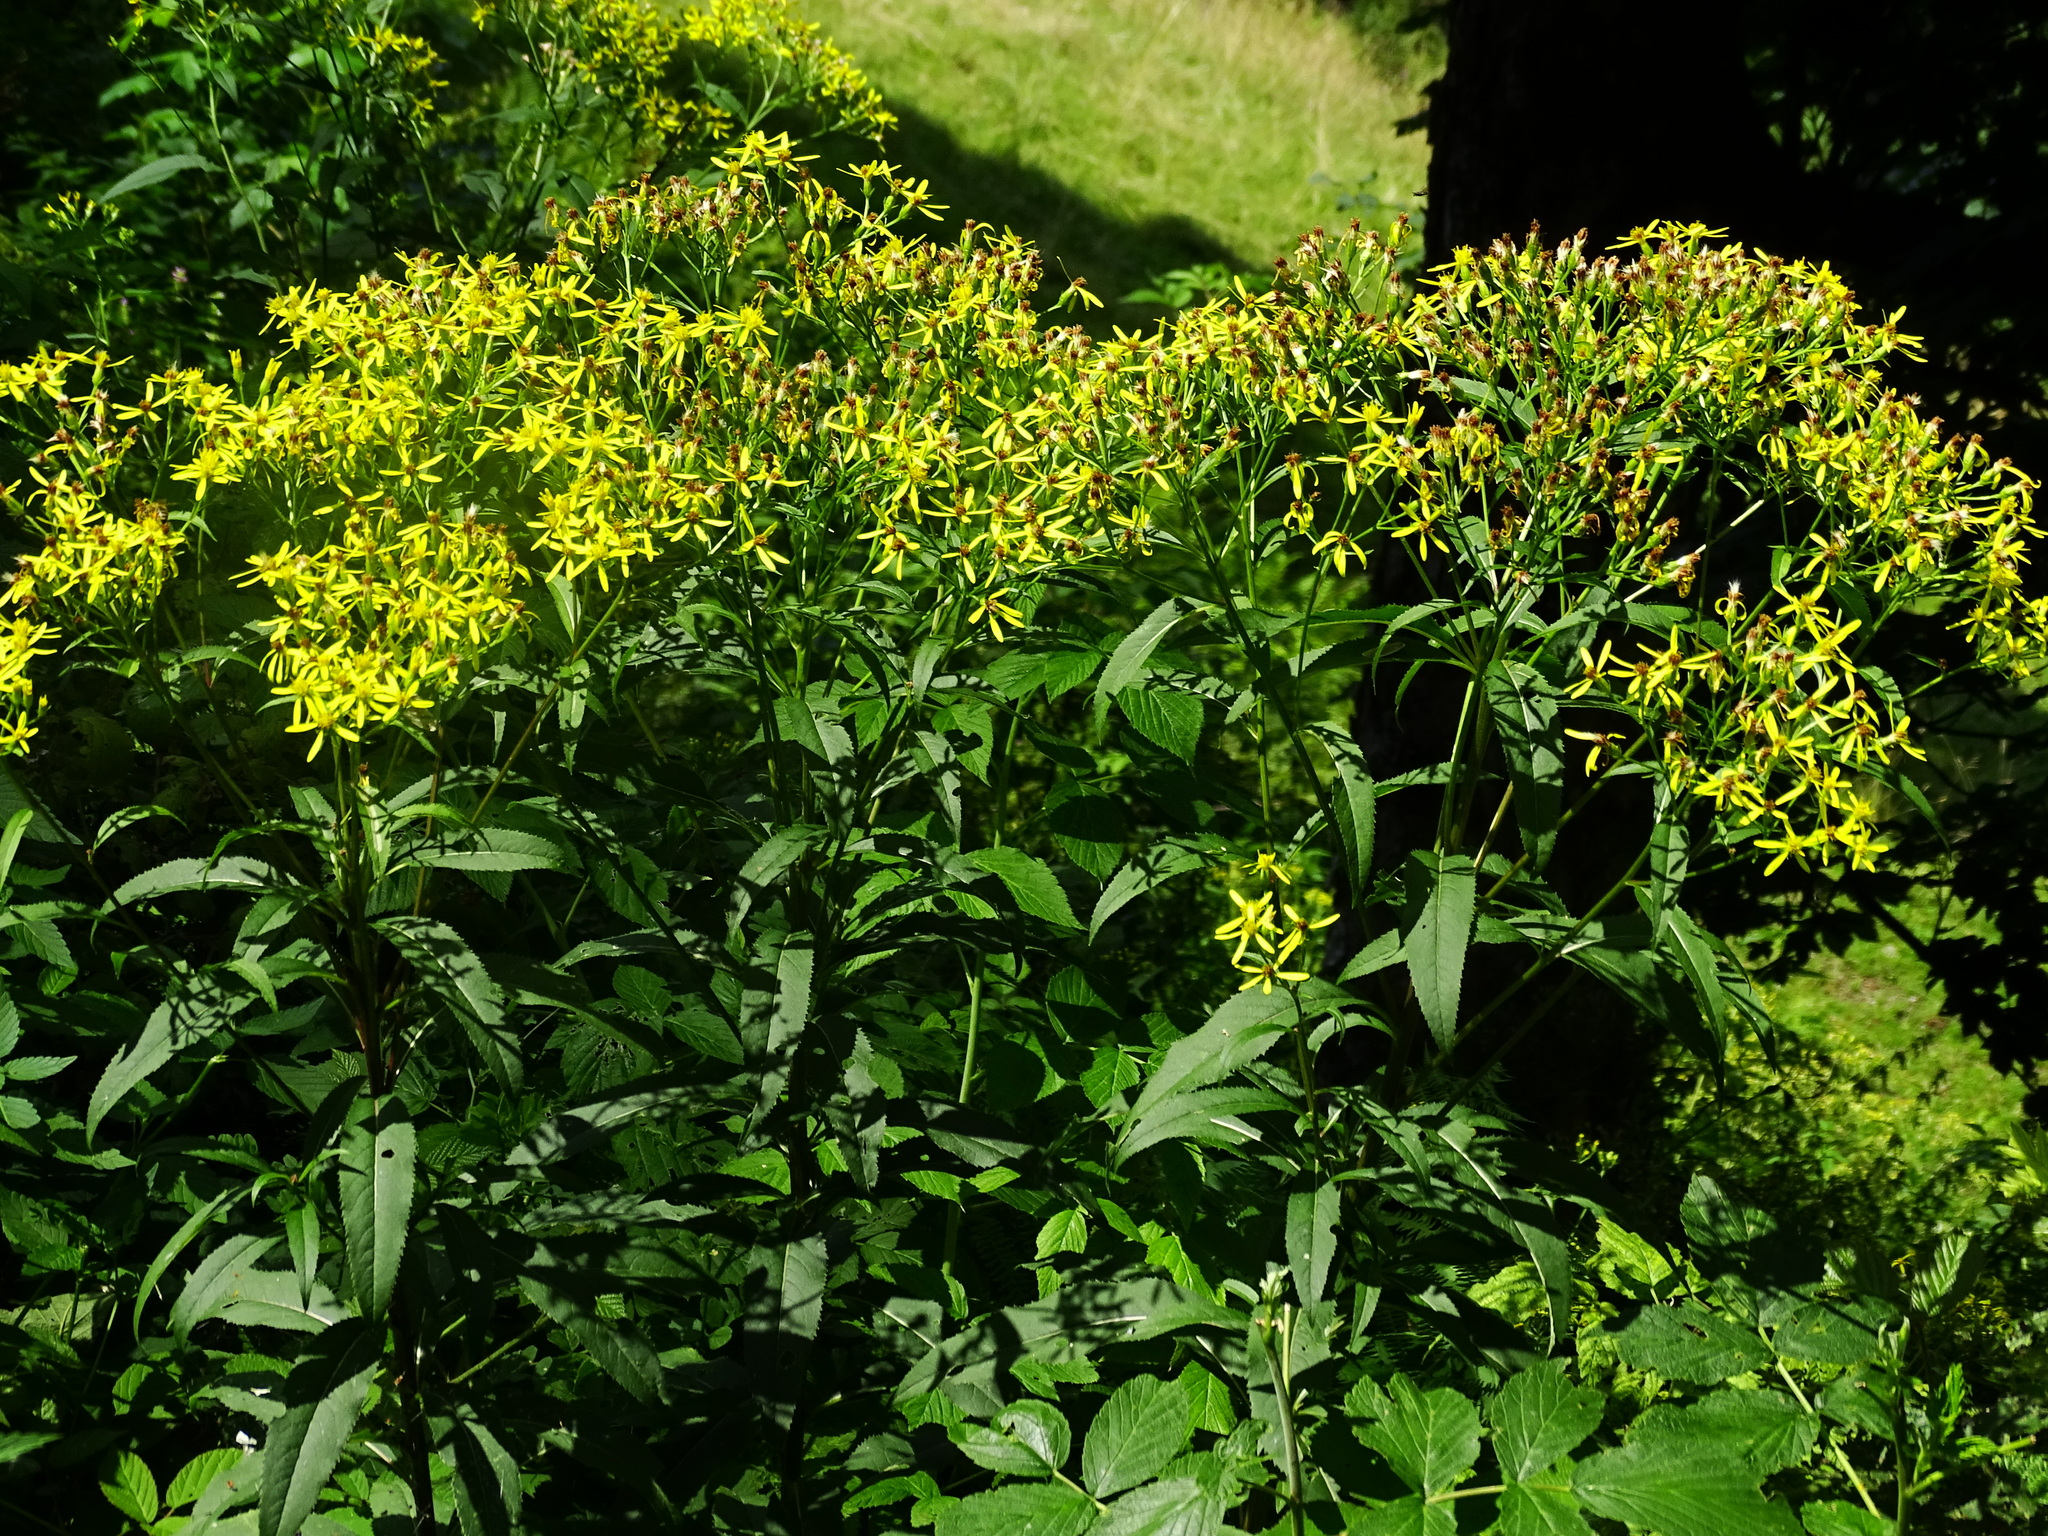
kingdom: Plantae
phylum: Tracheophyta
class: Magnoliopsida
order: Asterales
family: Asteraceae
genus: Senecio
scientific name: Senecio ovatus
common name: Wood ragwort
